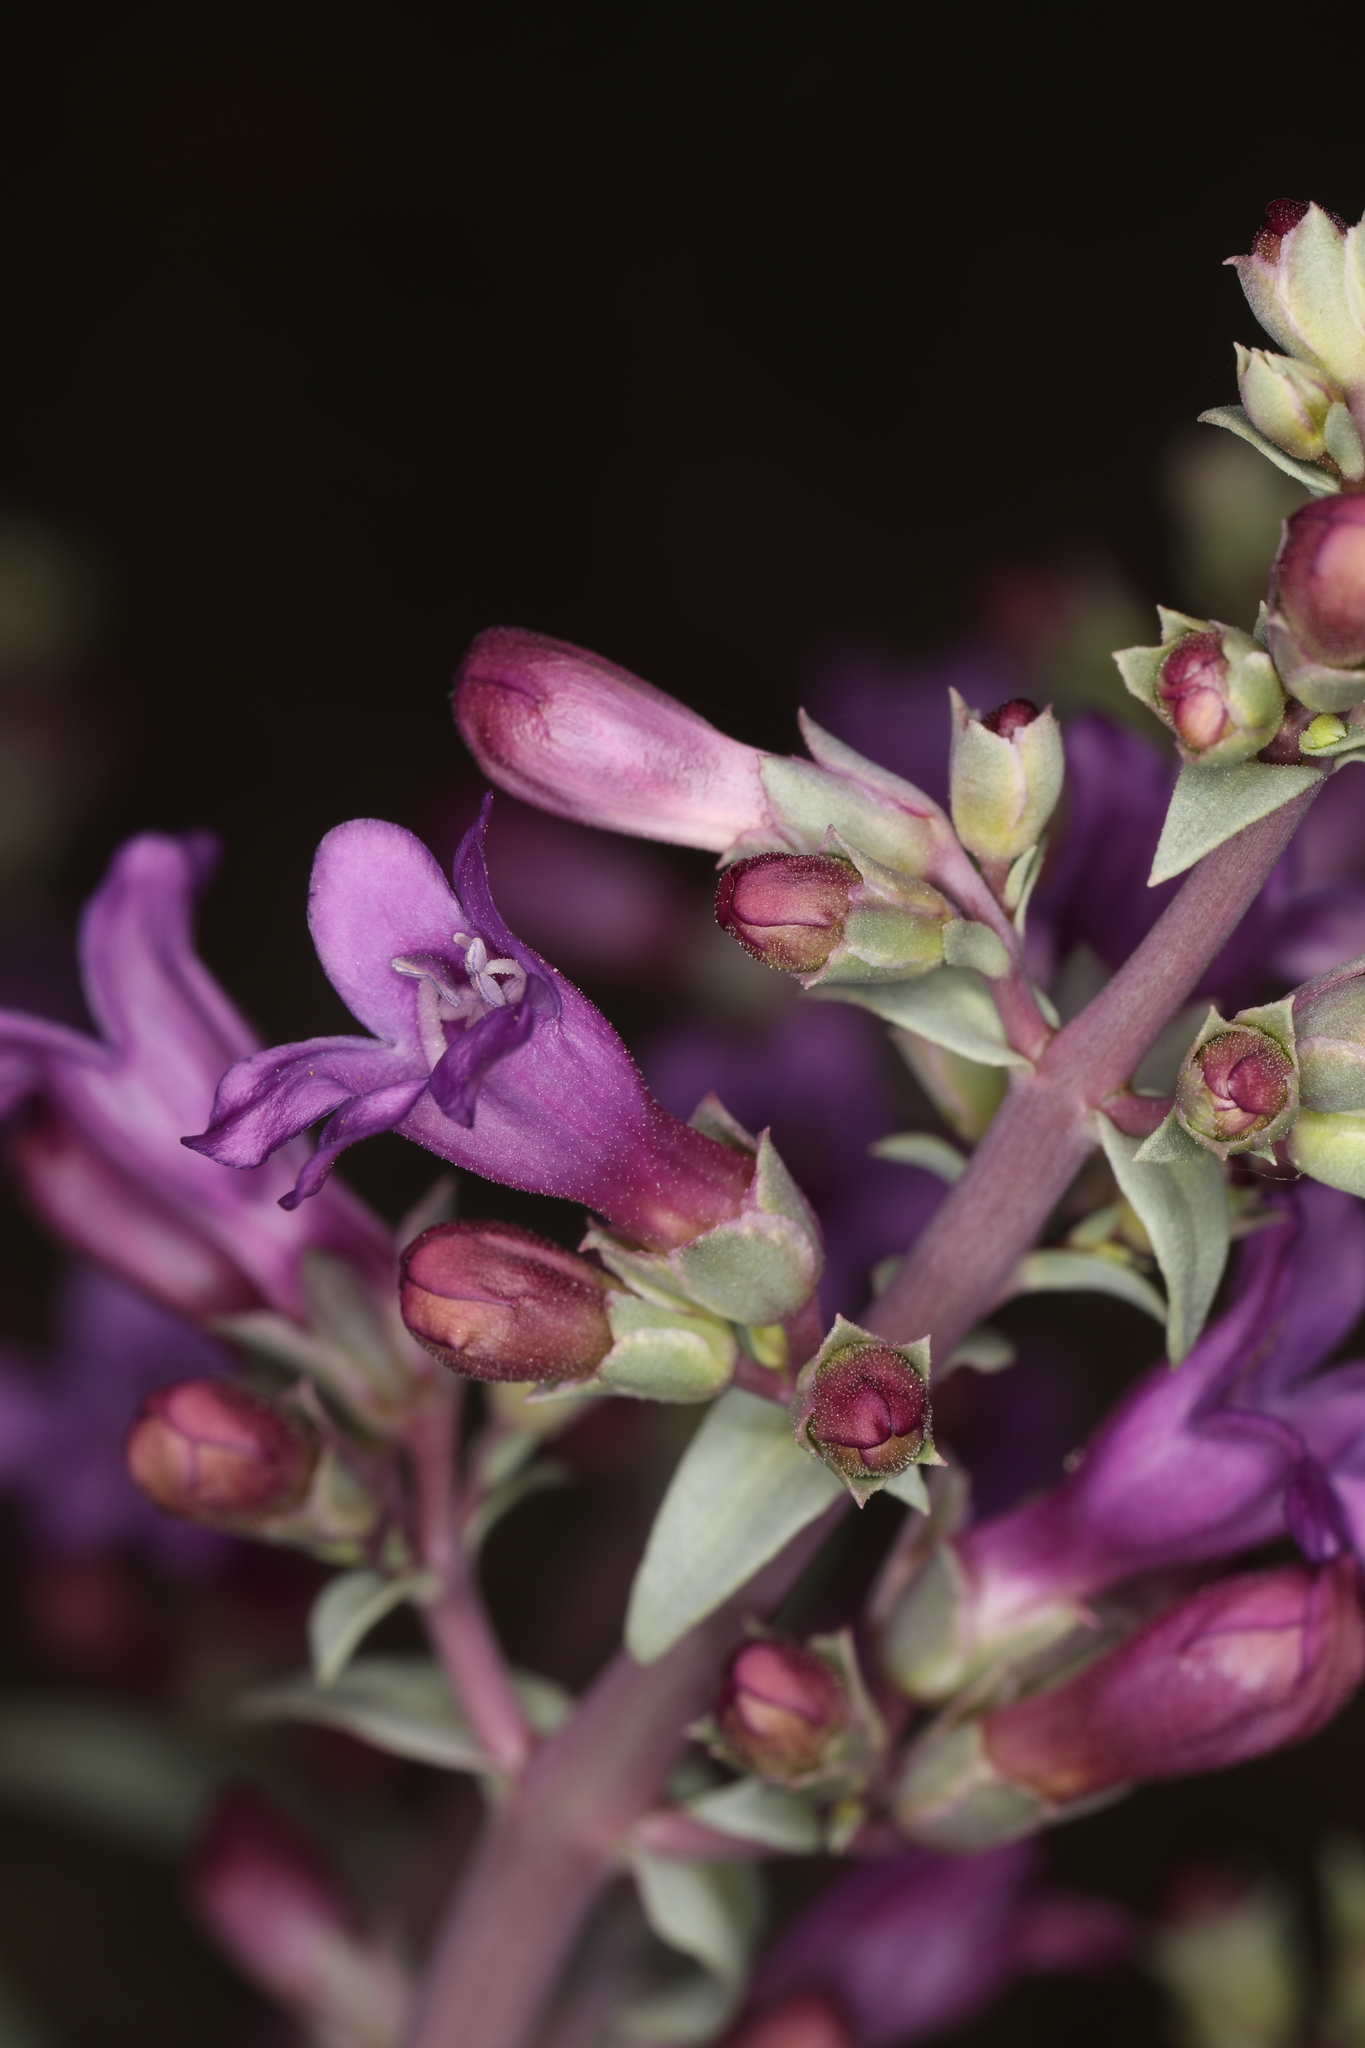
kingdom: Plantae
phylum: Tracheophyta
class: Magnoliopsida
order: Lamiales
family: Plantaginaceae
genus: Penstemon
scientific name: Penstemon patens
